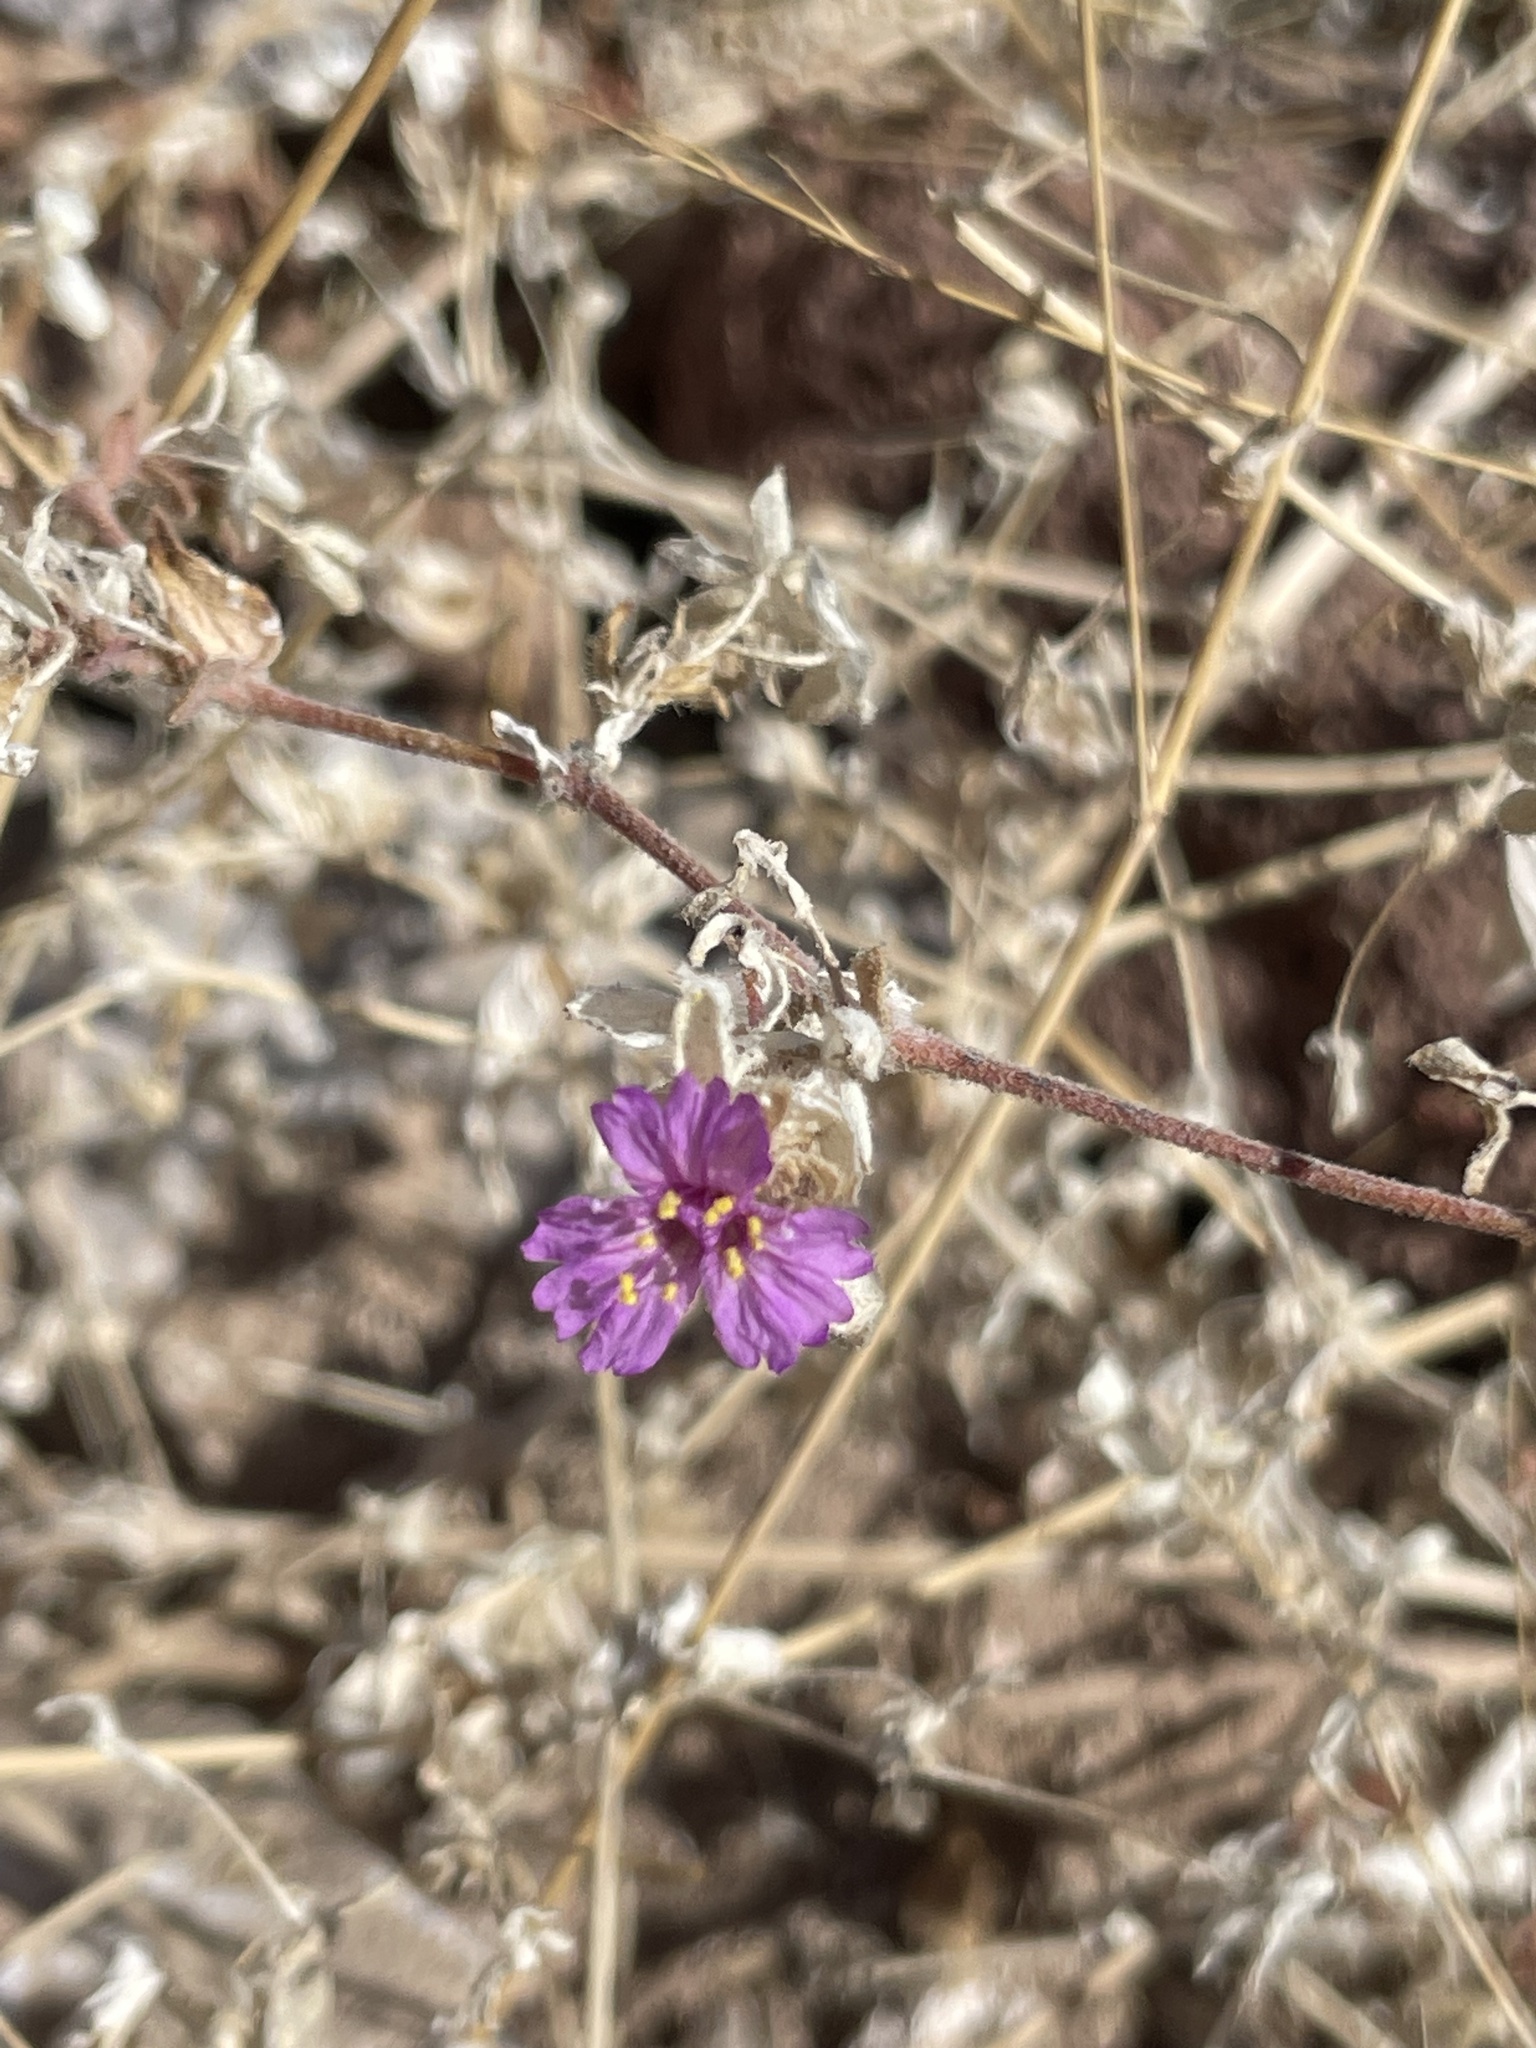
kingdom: Plantae
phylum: Tracheophyta
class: Magnoliopsida
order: Caryophyllales
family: Nyctaginaceae
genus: Allionia
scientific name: Allionia incarnata
